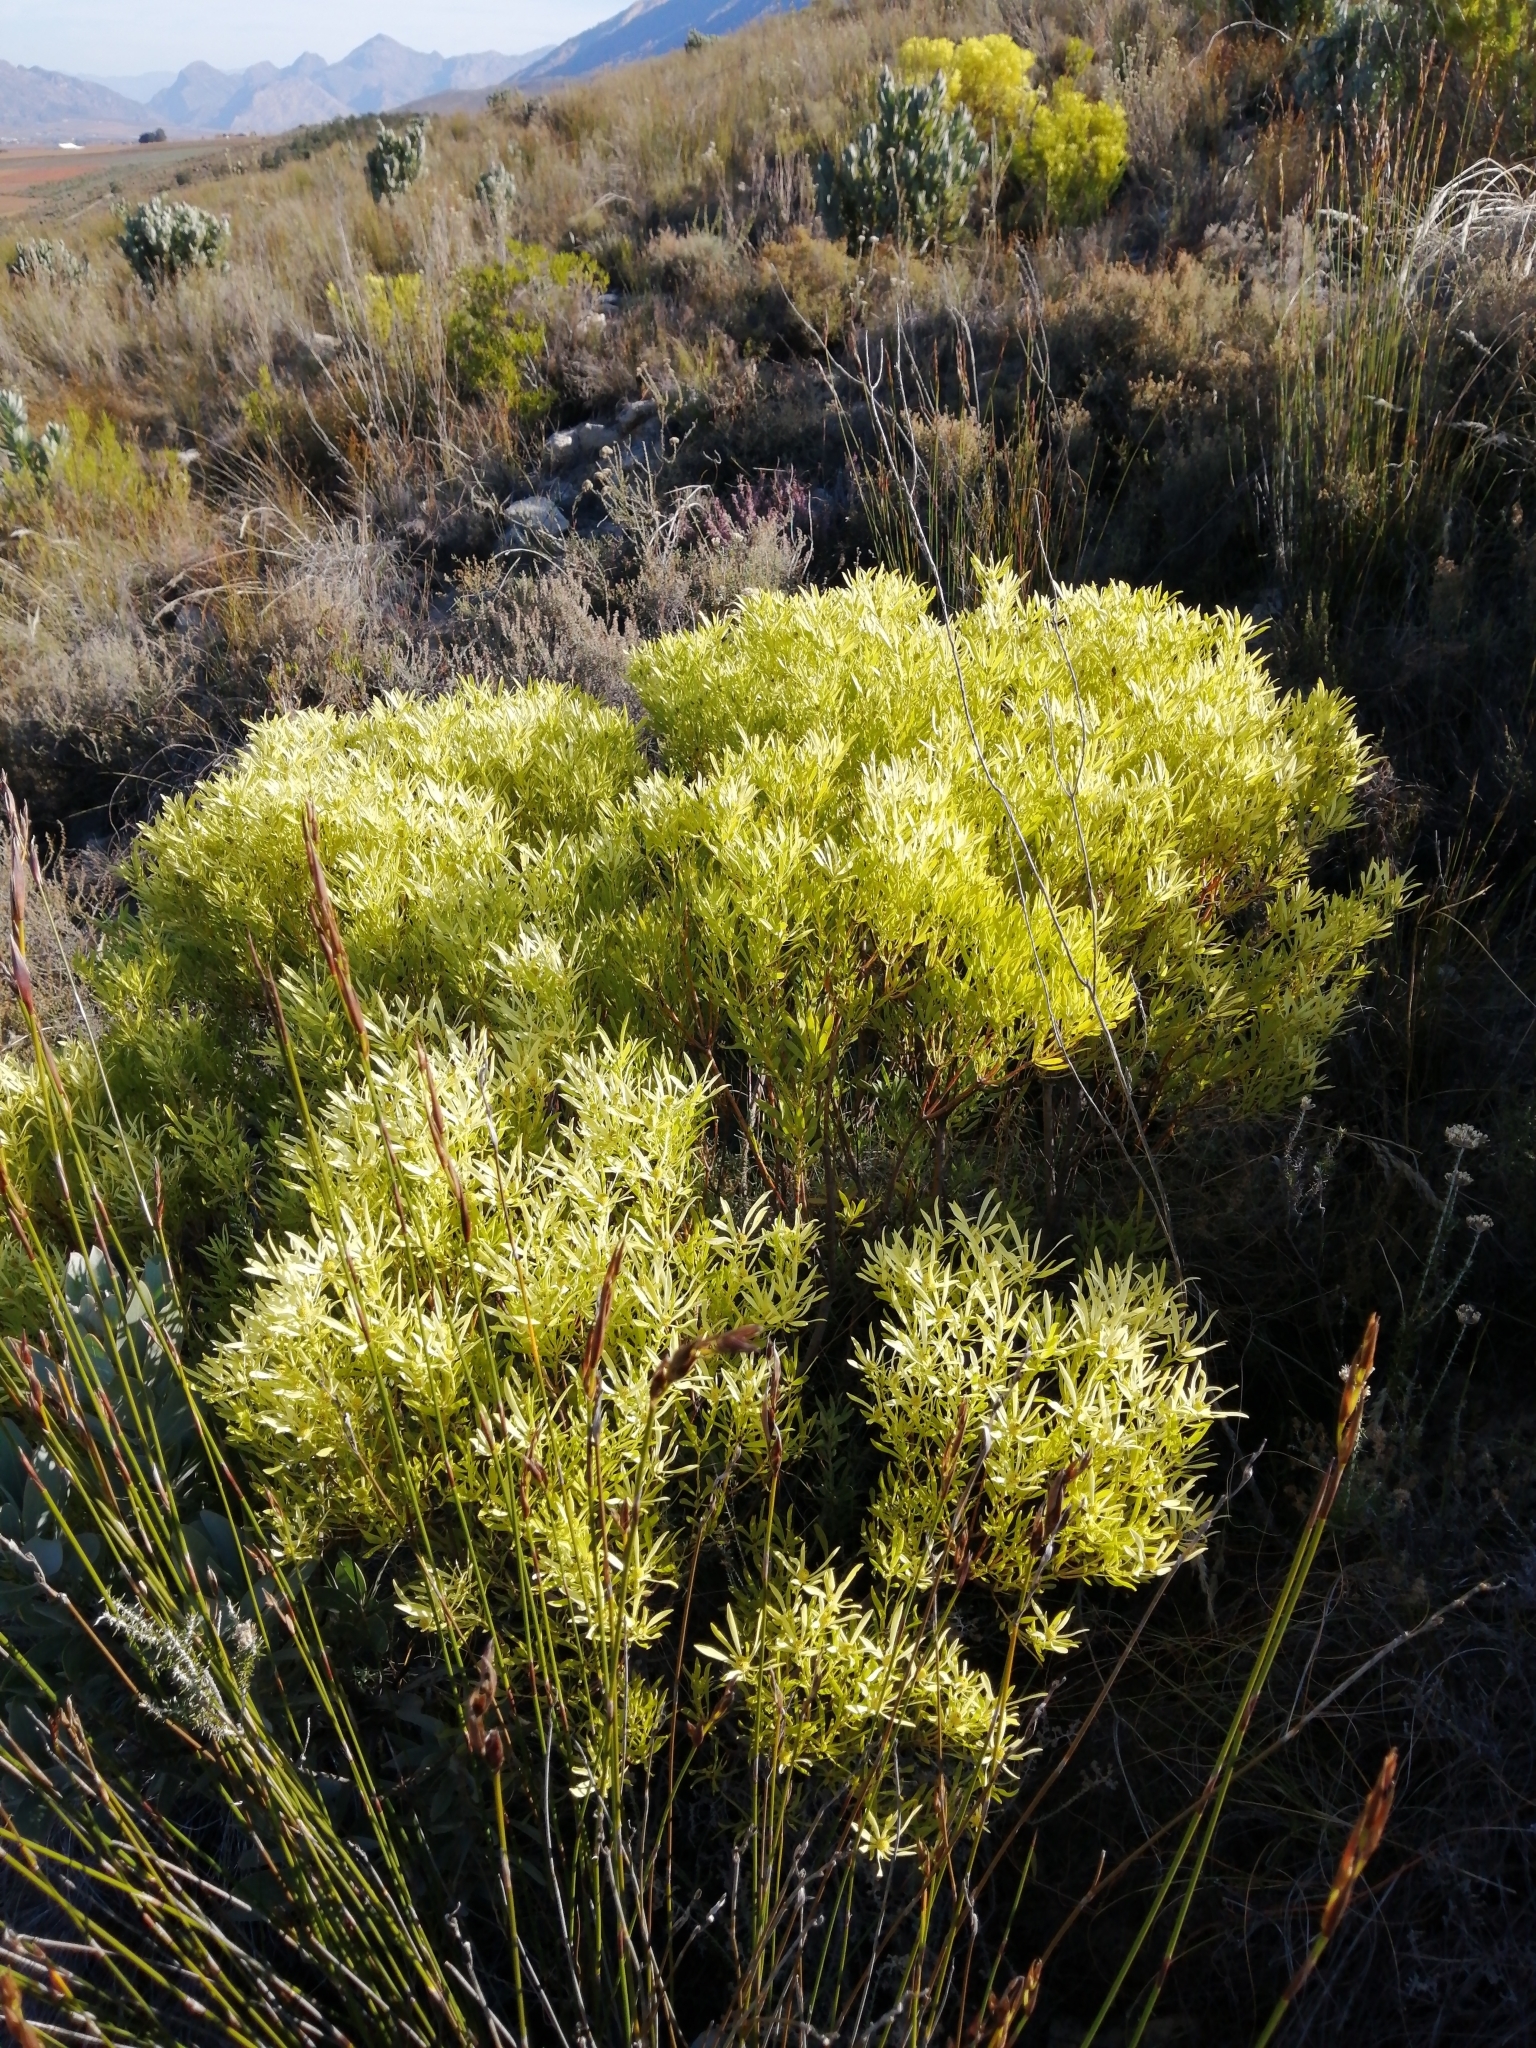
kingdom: Plantae
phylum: Tracheophyta
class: Magnoliopsida
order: Proteales
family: Proteaceae
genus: Leucadendron
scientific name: Leucadendron salignum
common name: Common sunshine conebush
